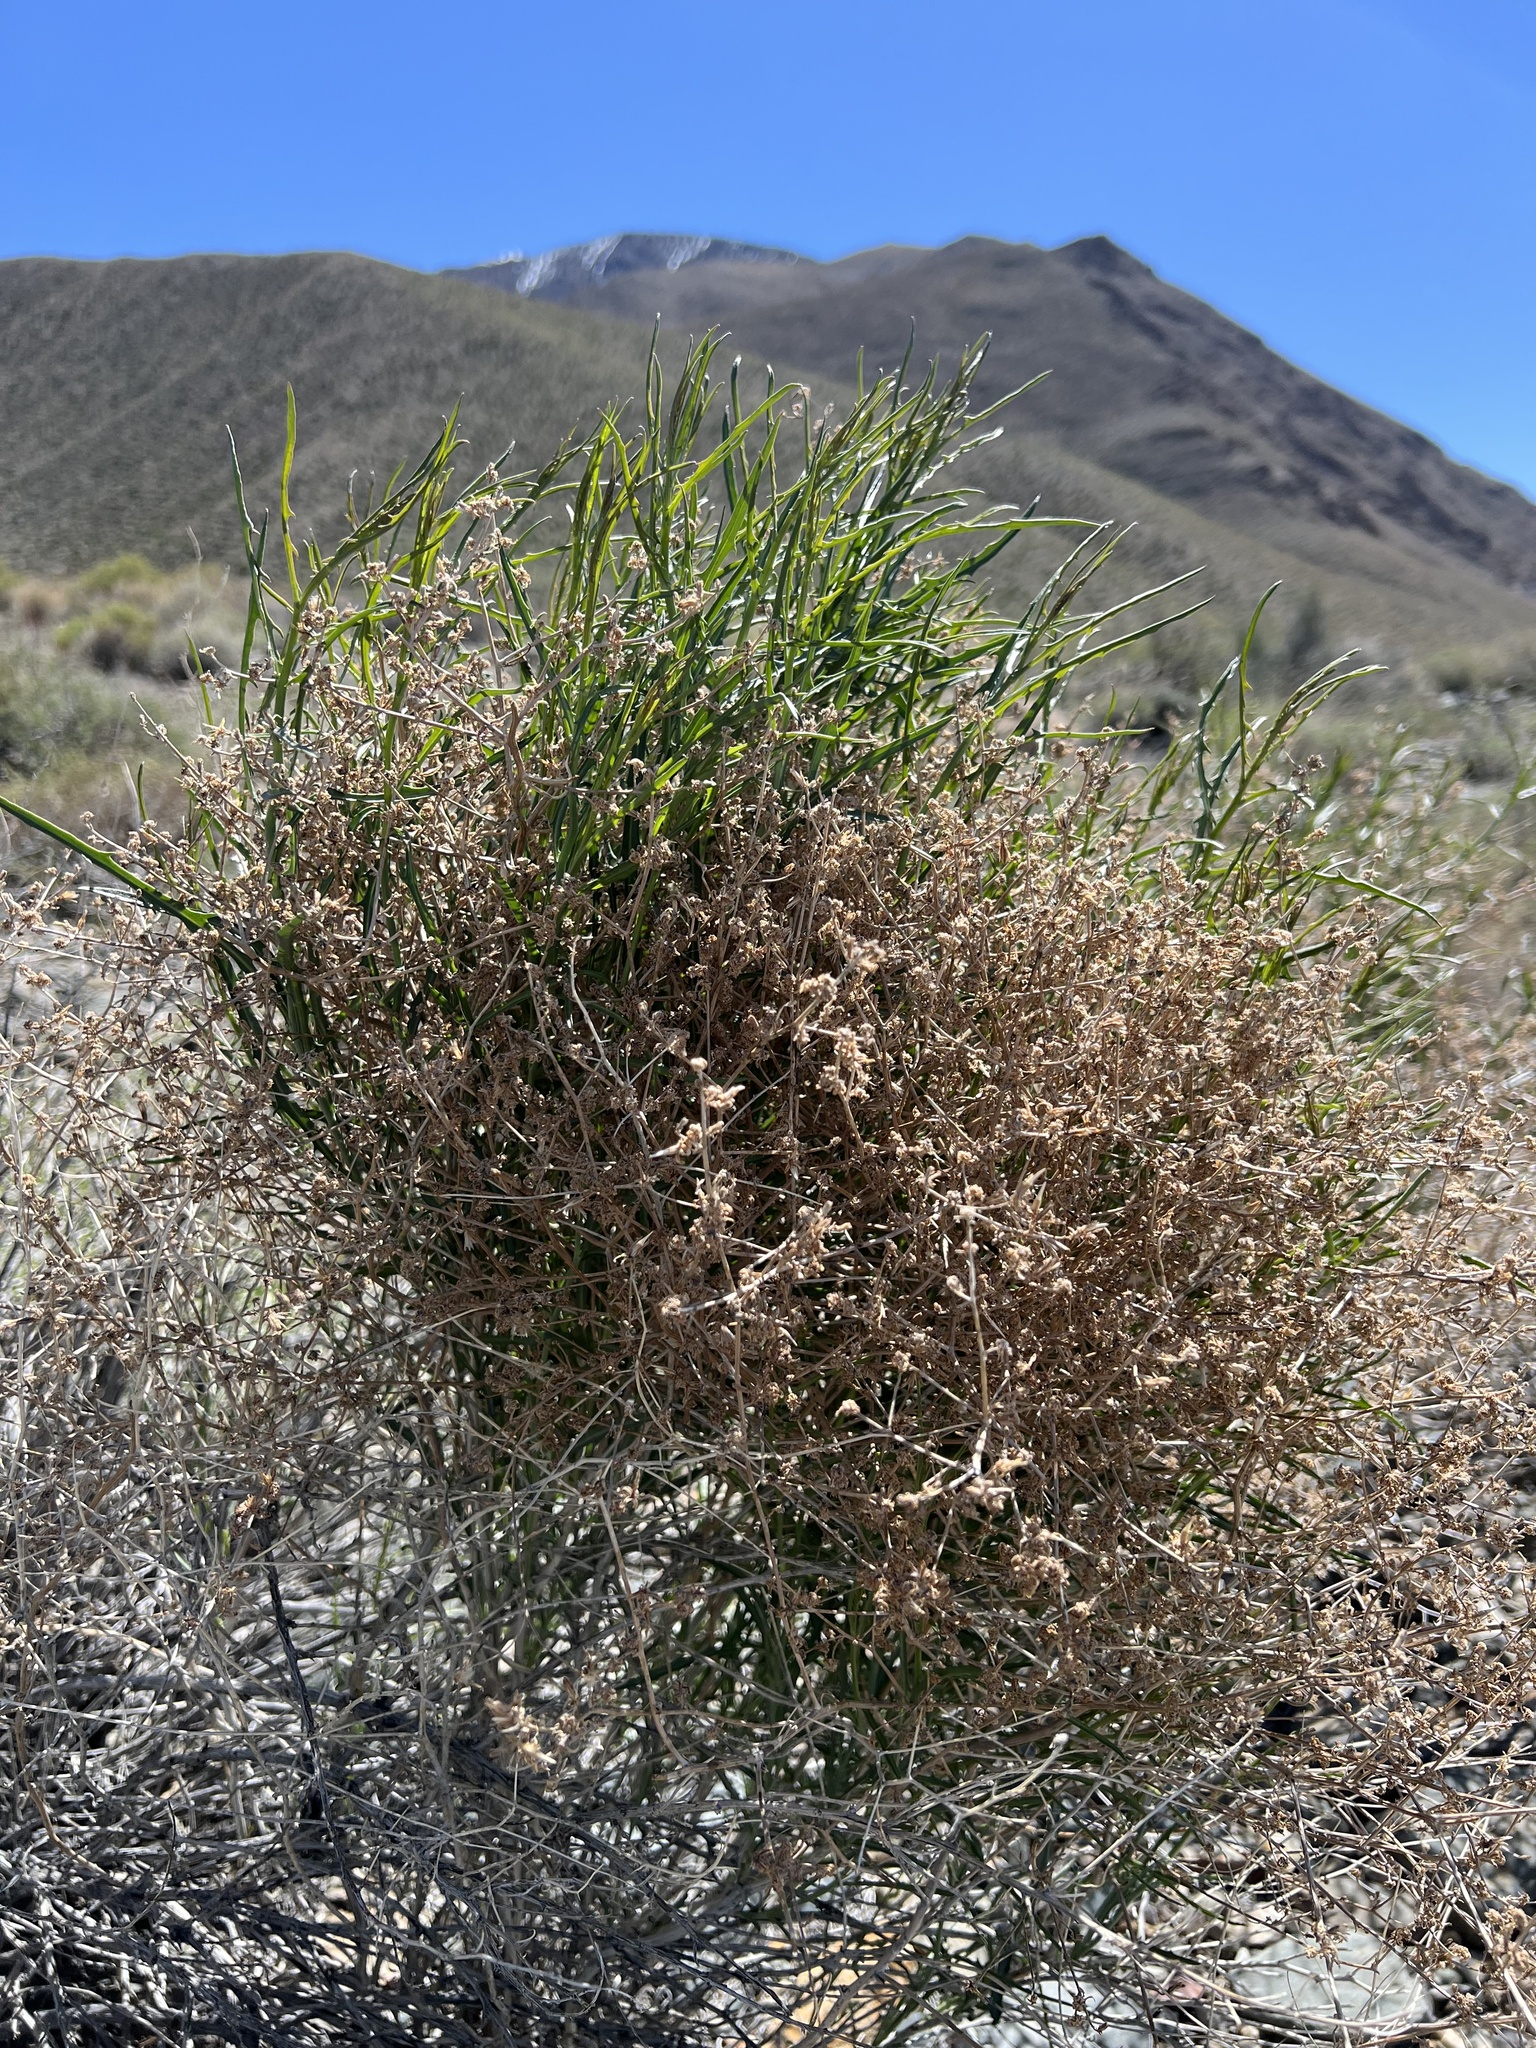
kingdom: Plantae
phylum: Tracheophyta
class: Magnoliopsida
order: Asterales
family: Asteraceae
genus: Stephanomeria
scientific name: Stephanomeria pauciflora
